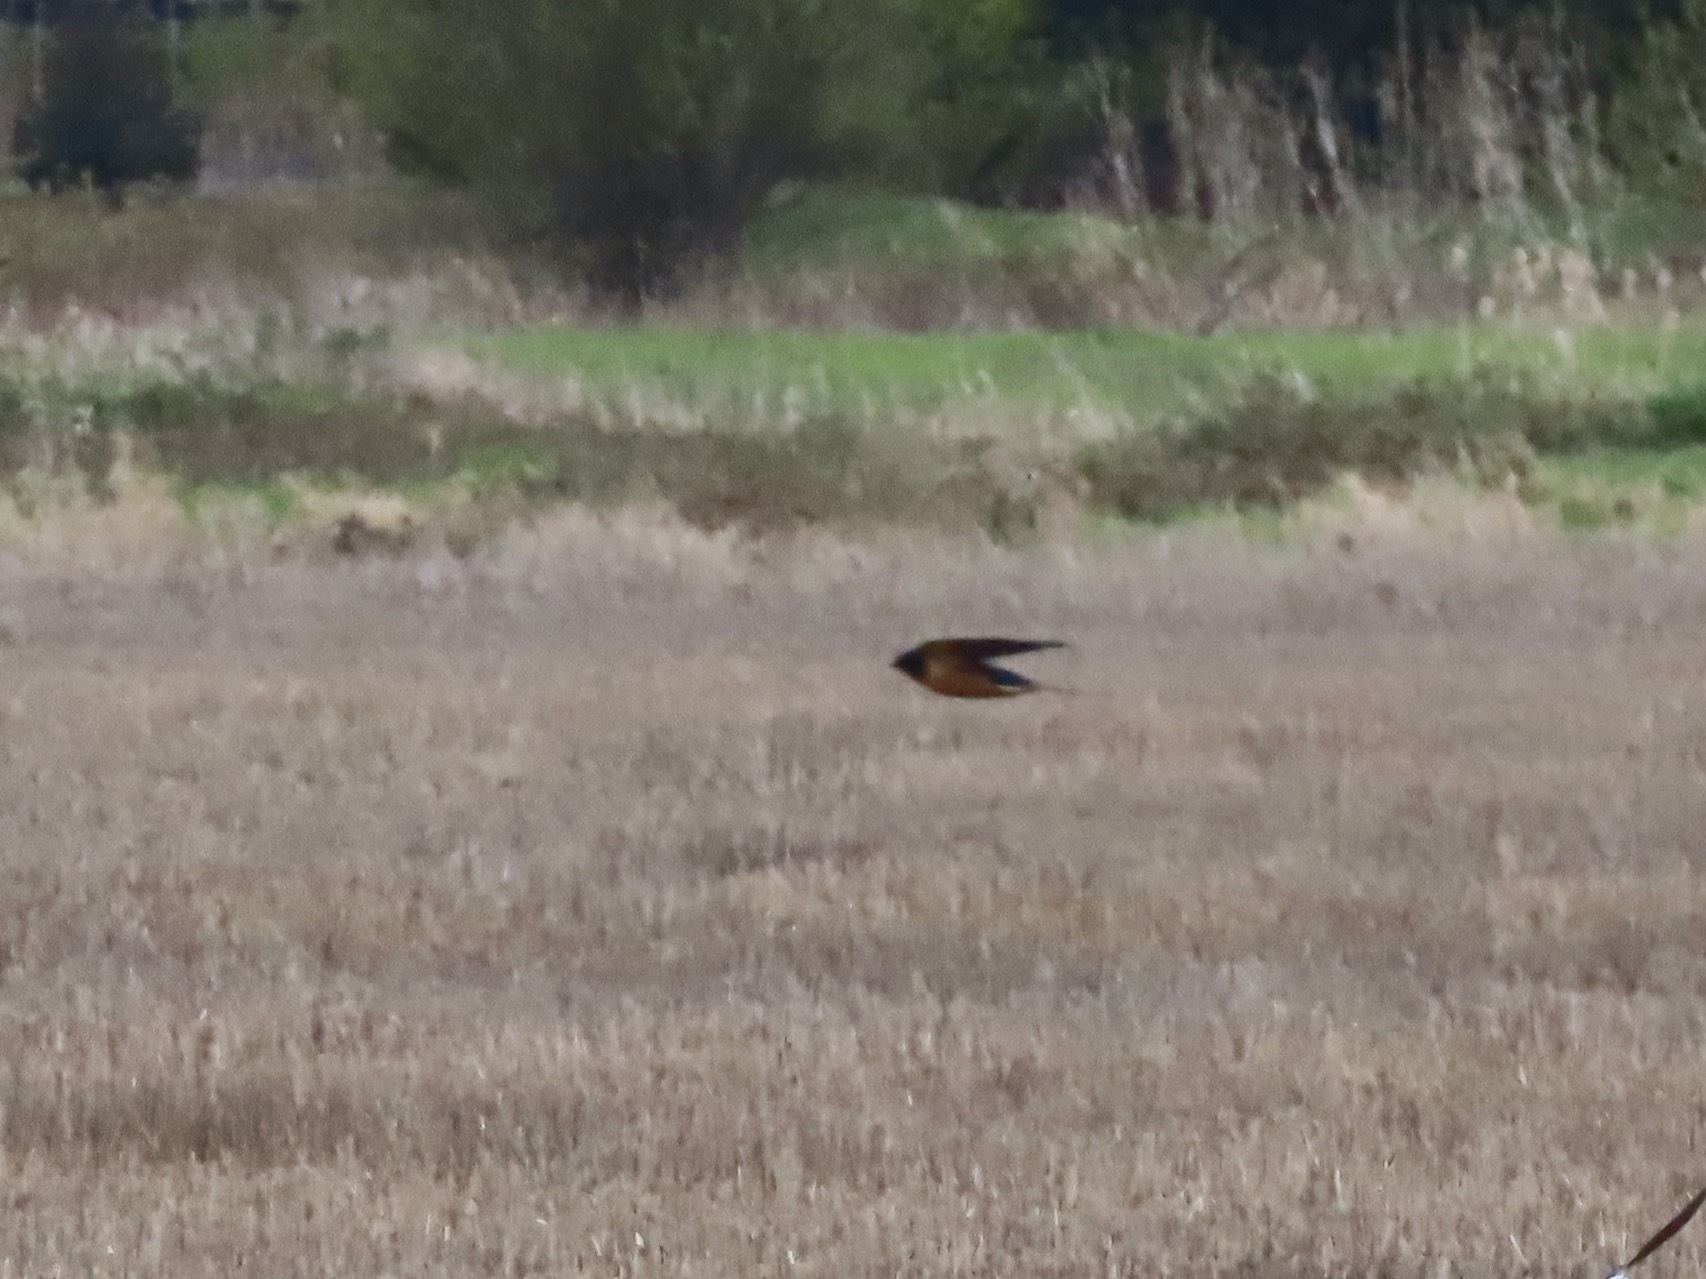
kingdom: Animalia
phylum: Chordata
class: Aves
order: Passeriformes
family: Hirundinidae
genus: Hirundo
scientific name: Hirundo rustica
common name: Barn swallow
